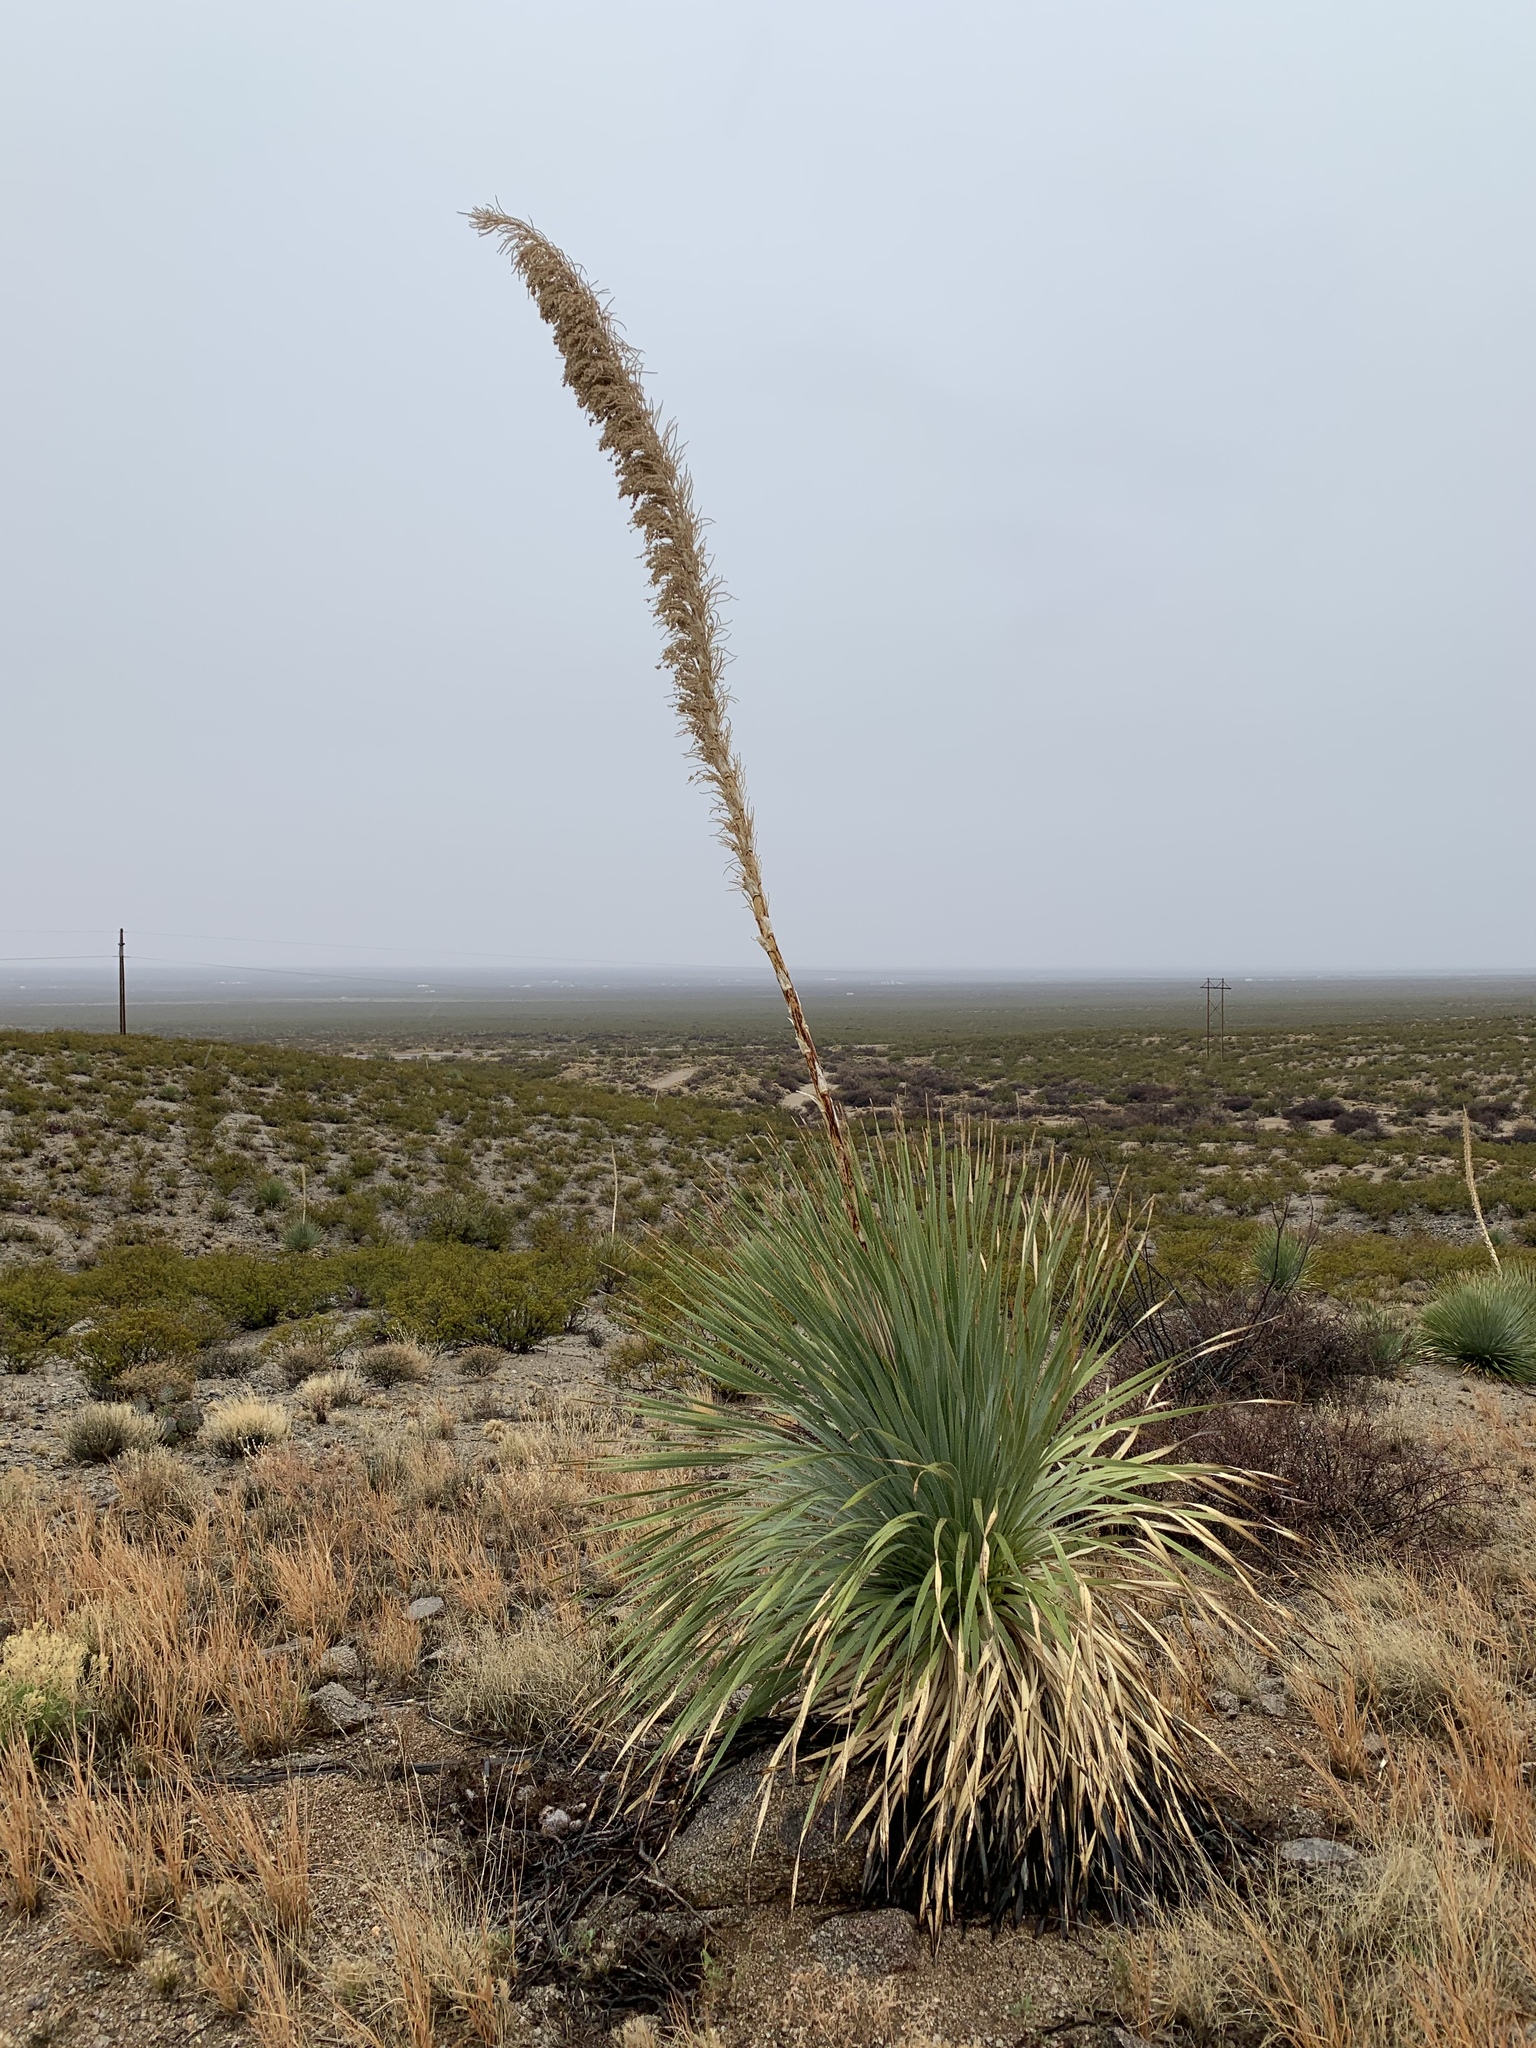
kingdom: Plantae
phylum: Tracheophyta
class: Liliopsida
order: Asparagales
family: Asparagaceae
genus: Dasylirion
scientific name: Dasylirion wheeleri
